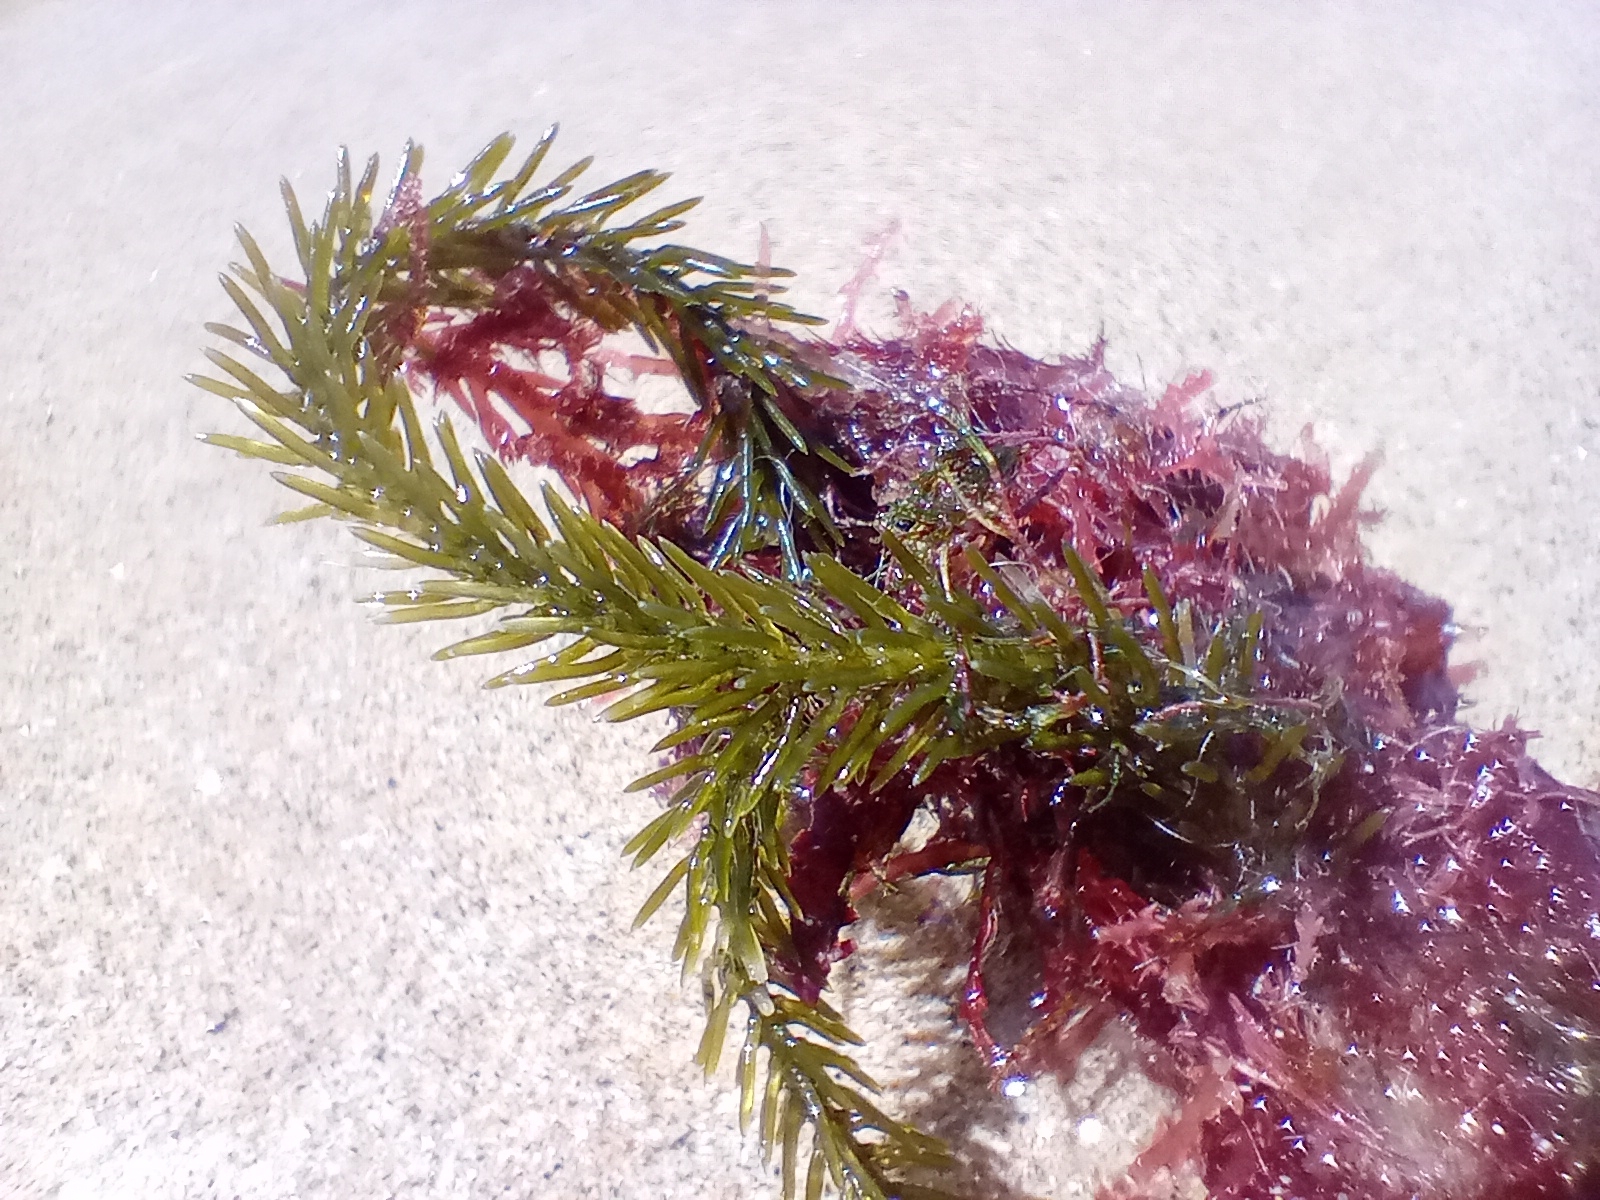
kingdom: Plantae
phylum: Chlorophyta
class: Ulvophyceae
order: Bryopsidales
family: Caulerpaceae
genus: Caulerpa
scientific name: Caulerpa brownii
